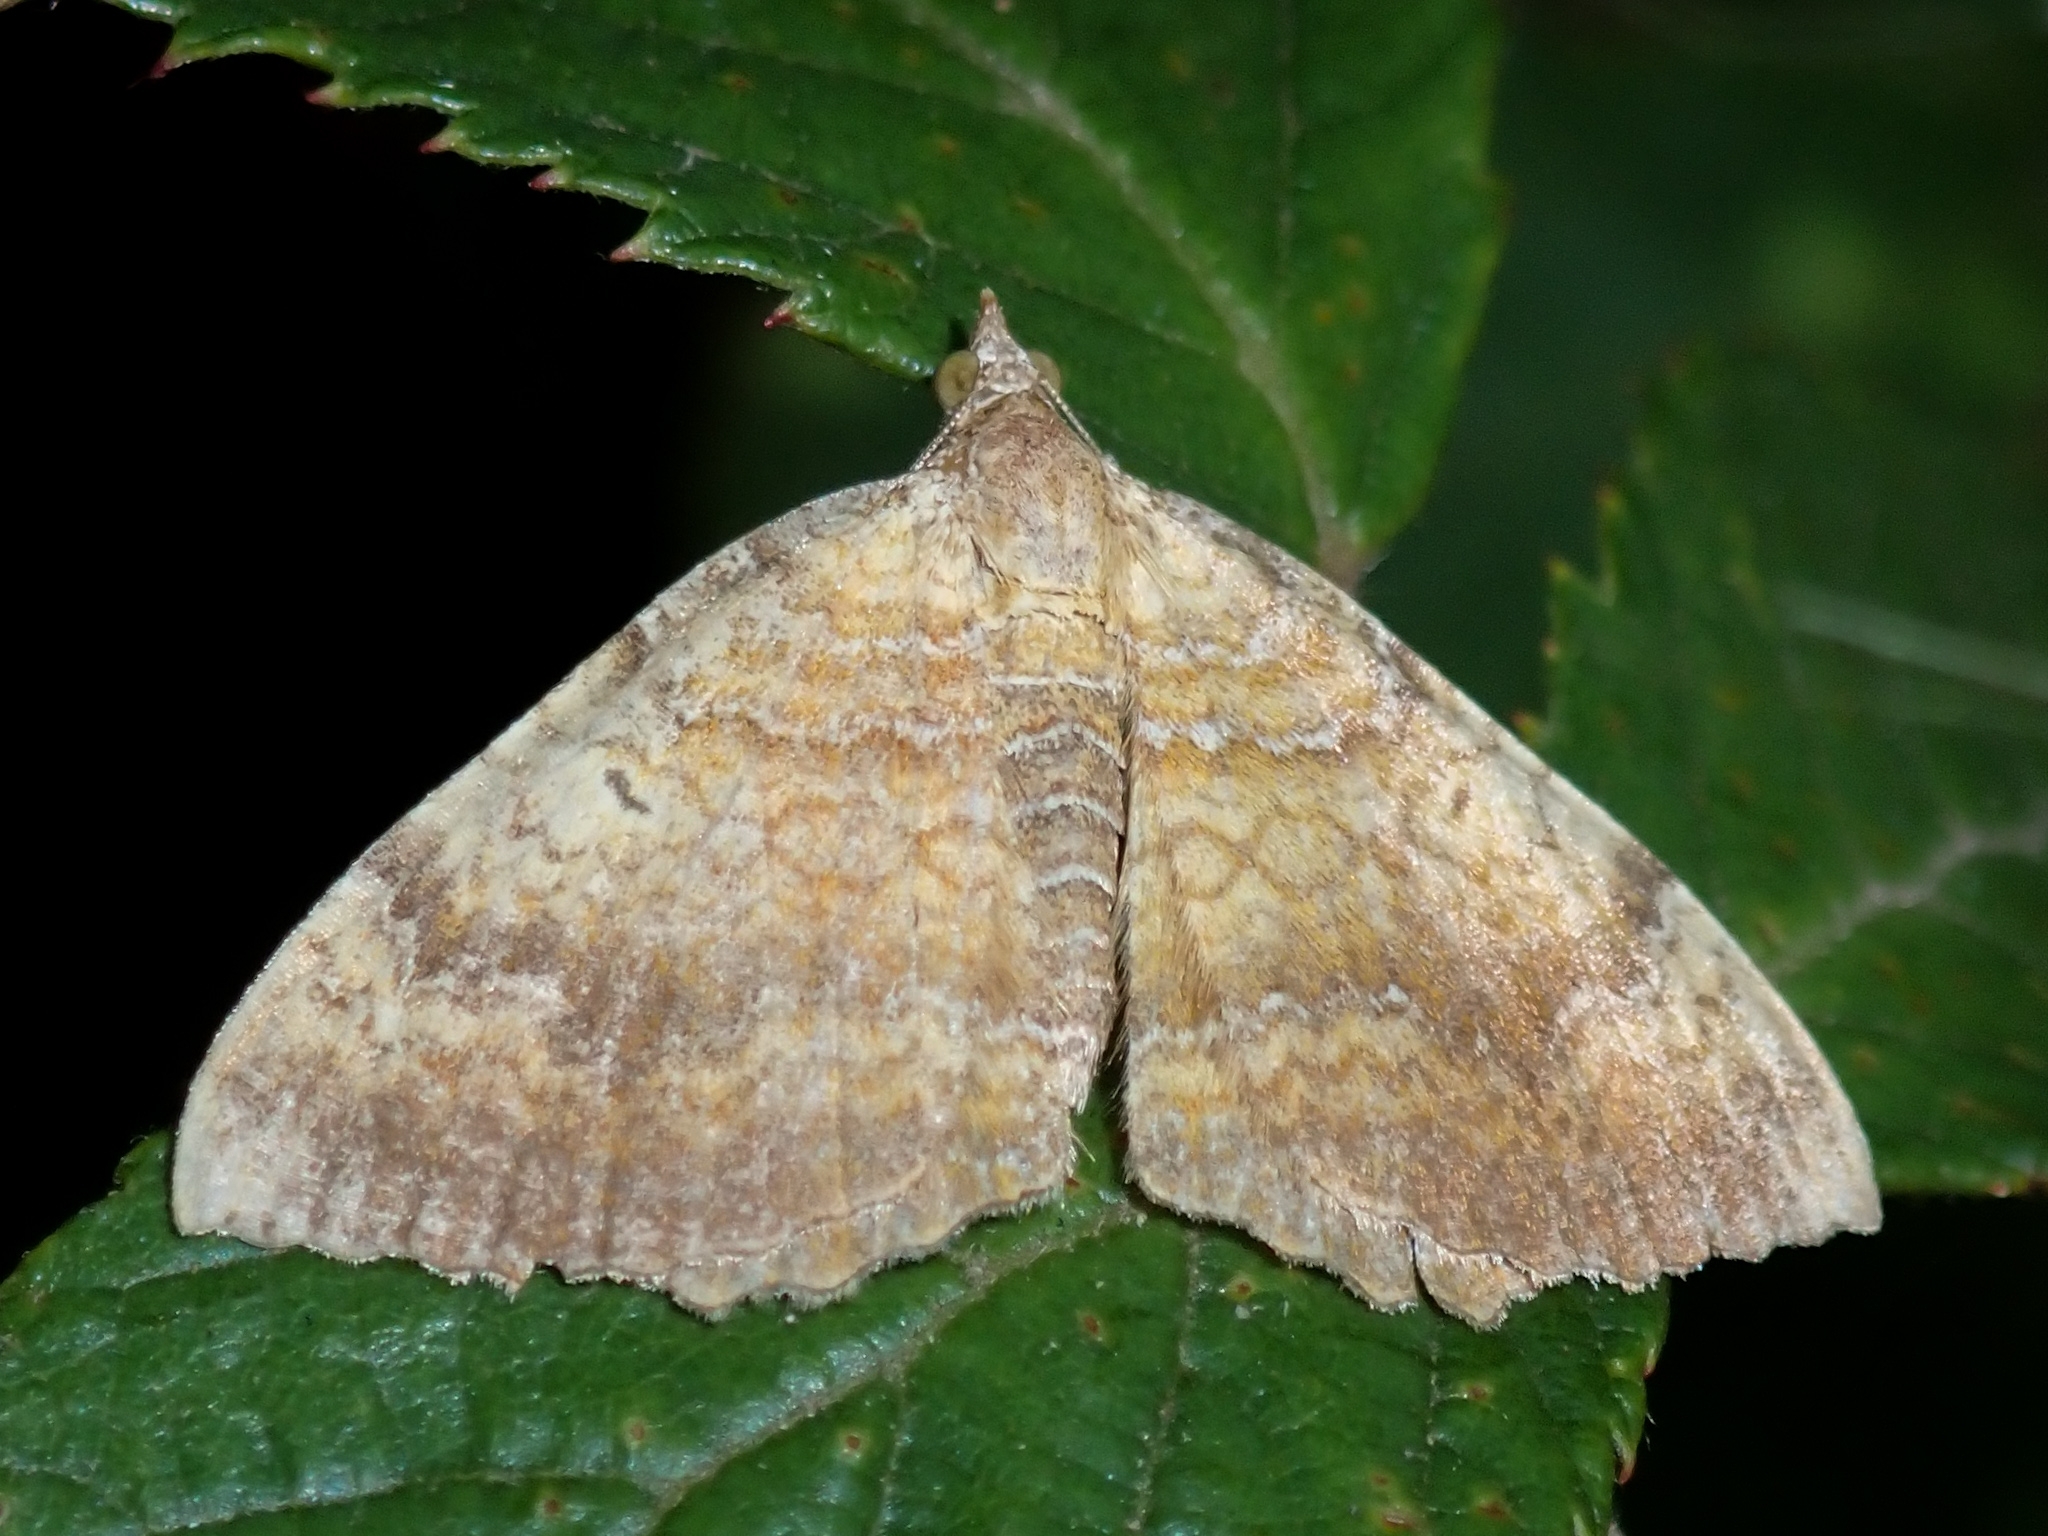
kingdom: Animalia
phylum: Arthropoda
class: Insecta
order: Lepidoptera
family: Geometridae
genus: Camptogramma
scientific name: Camptogramma bilineata
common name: Yellow shell
